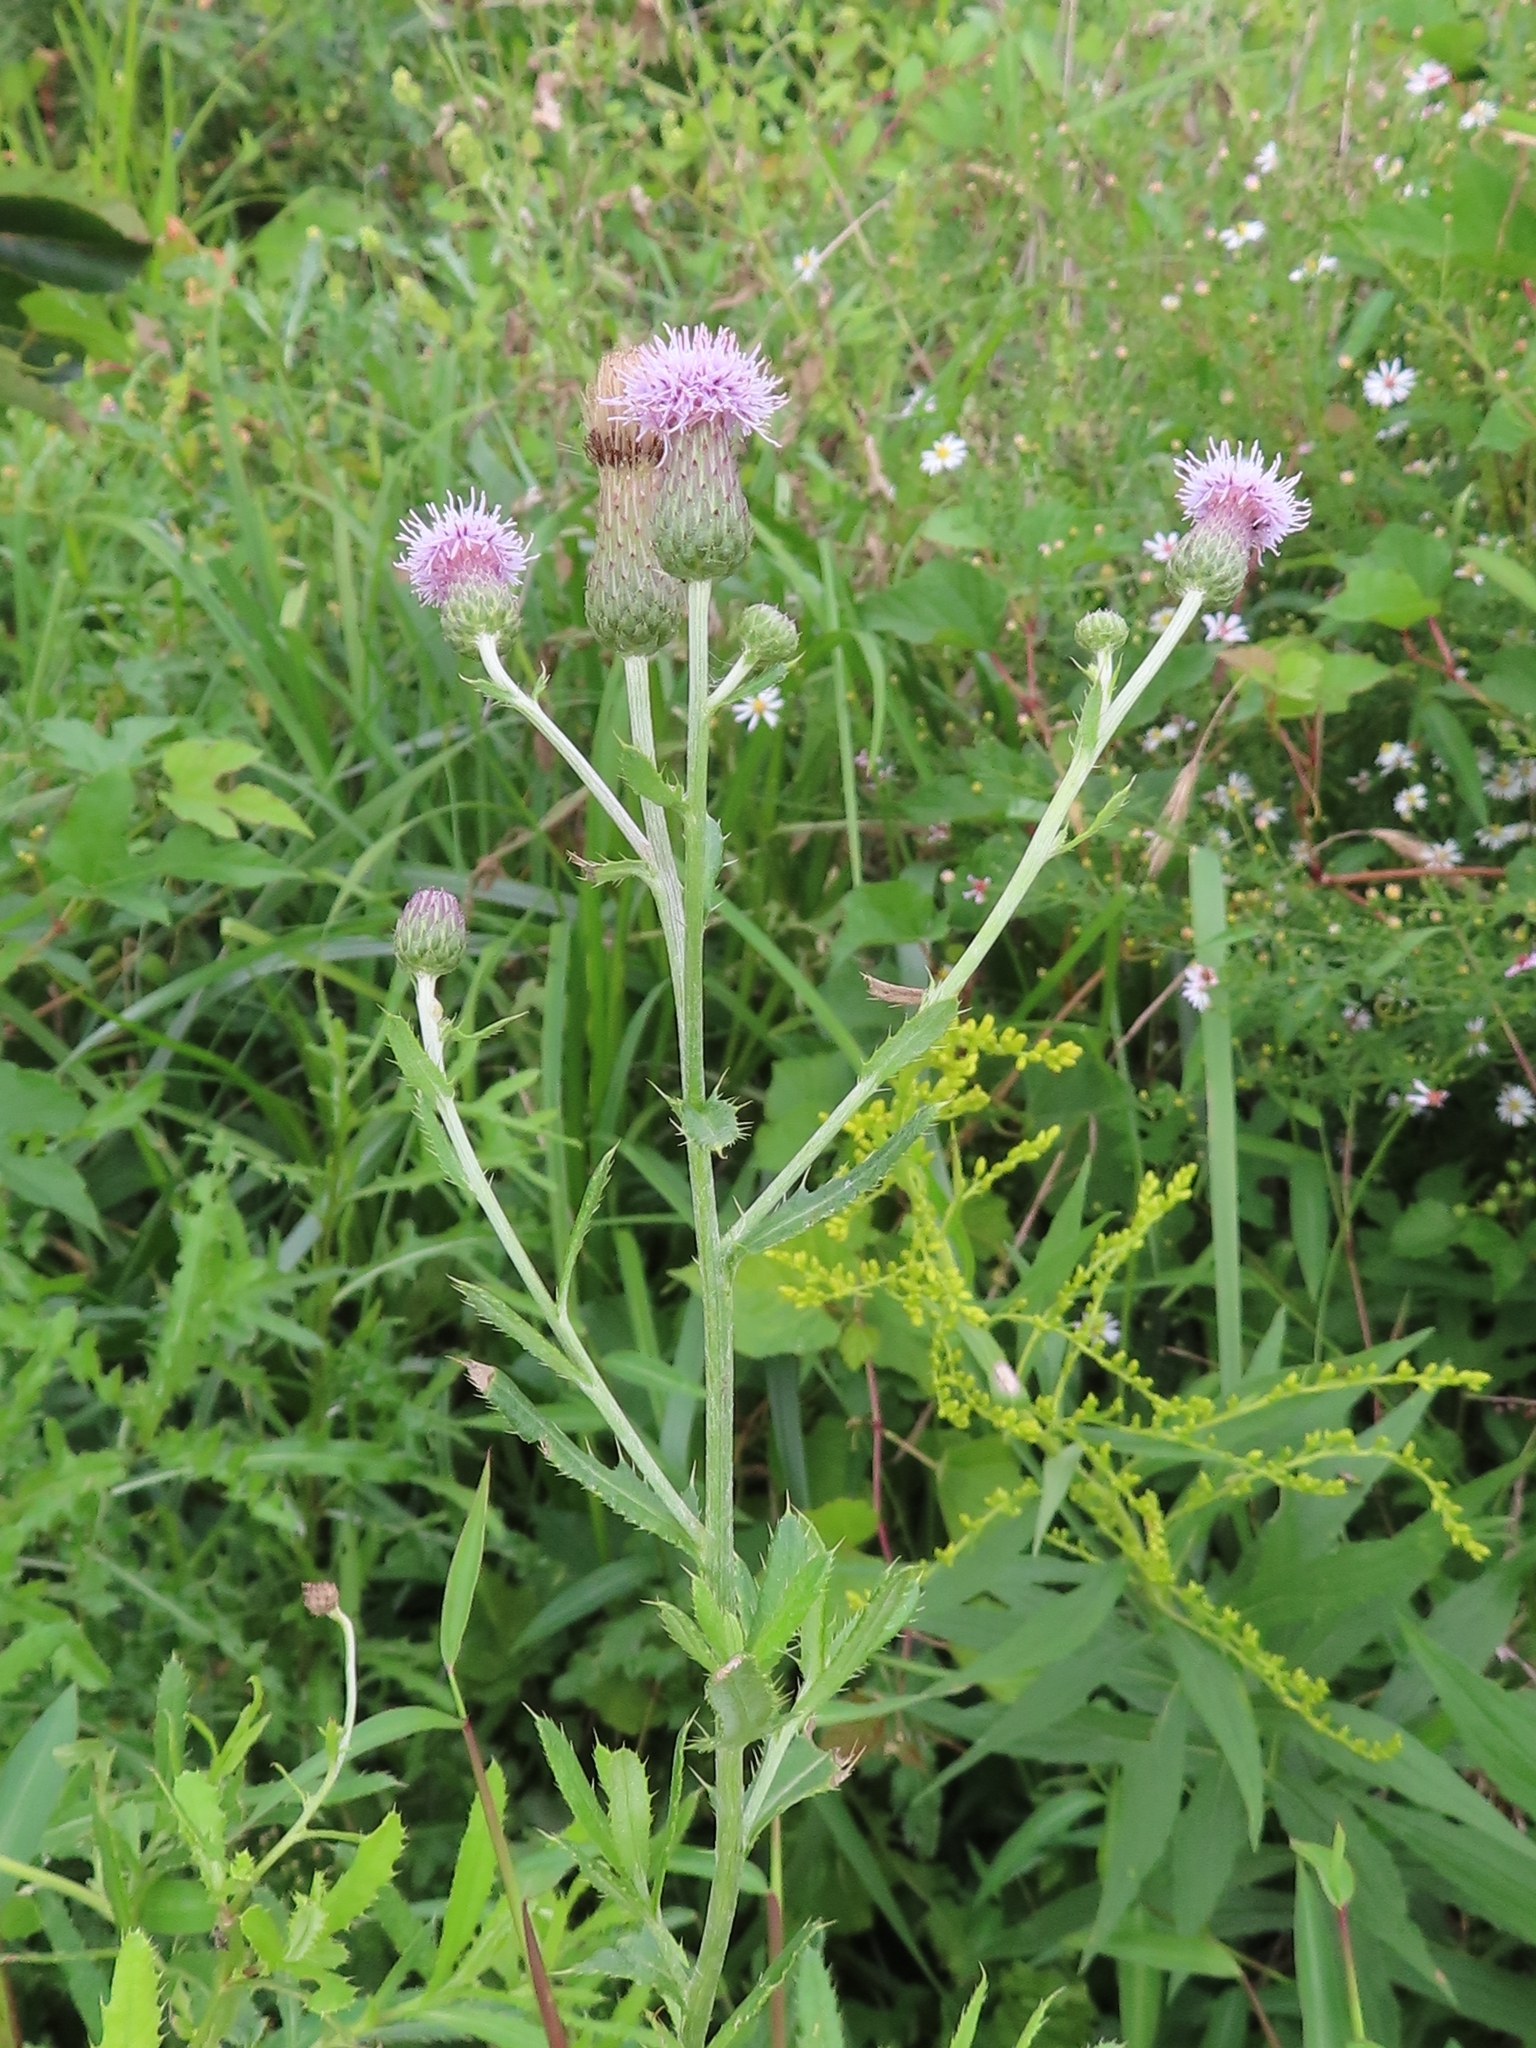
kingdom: Plantae
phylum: Tracheophyta
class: Magnoliopsida
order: Asterales
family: Asteraceae
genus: Cirsium
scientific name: Cirsium arvense
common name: Creeping thistle
